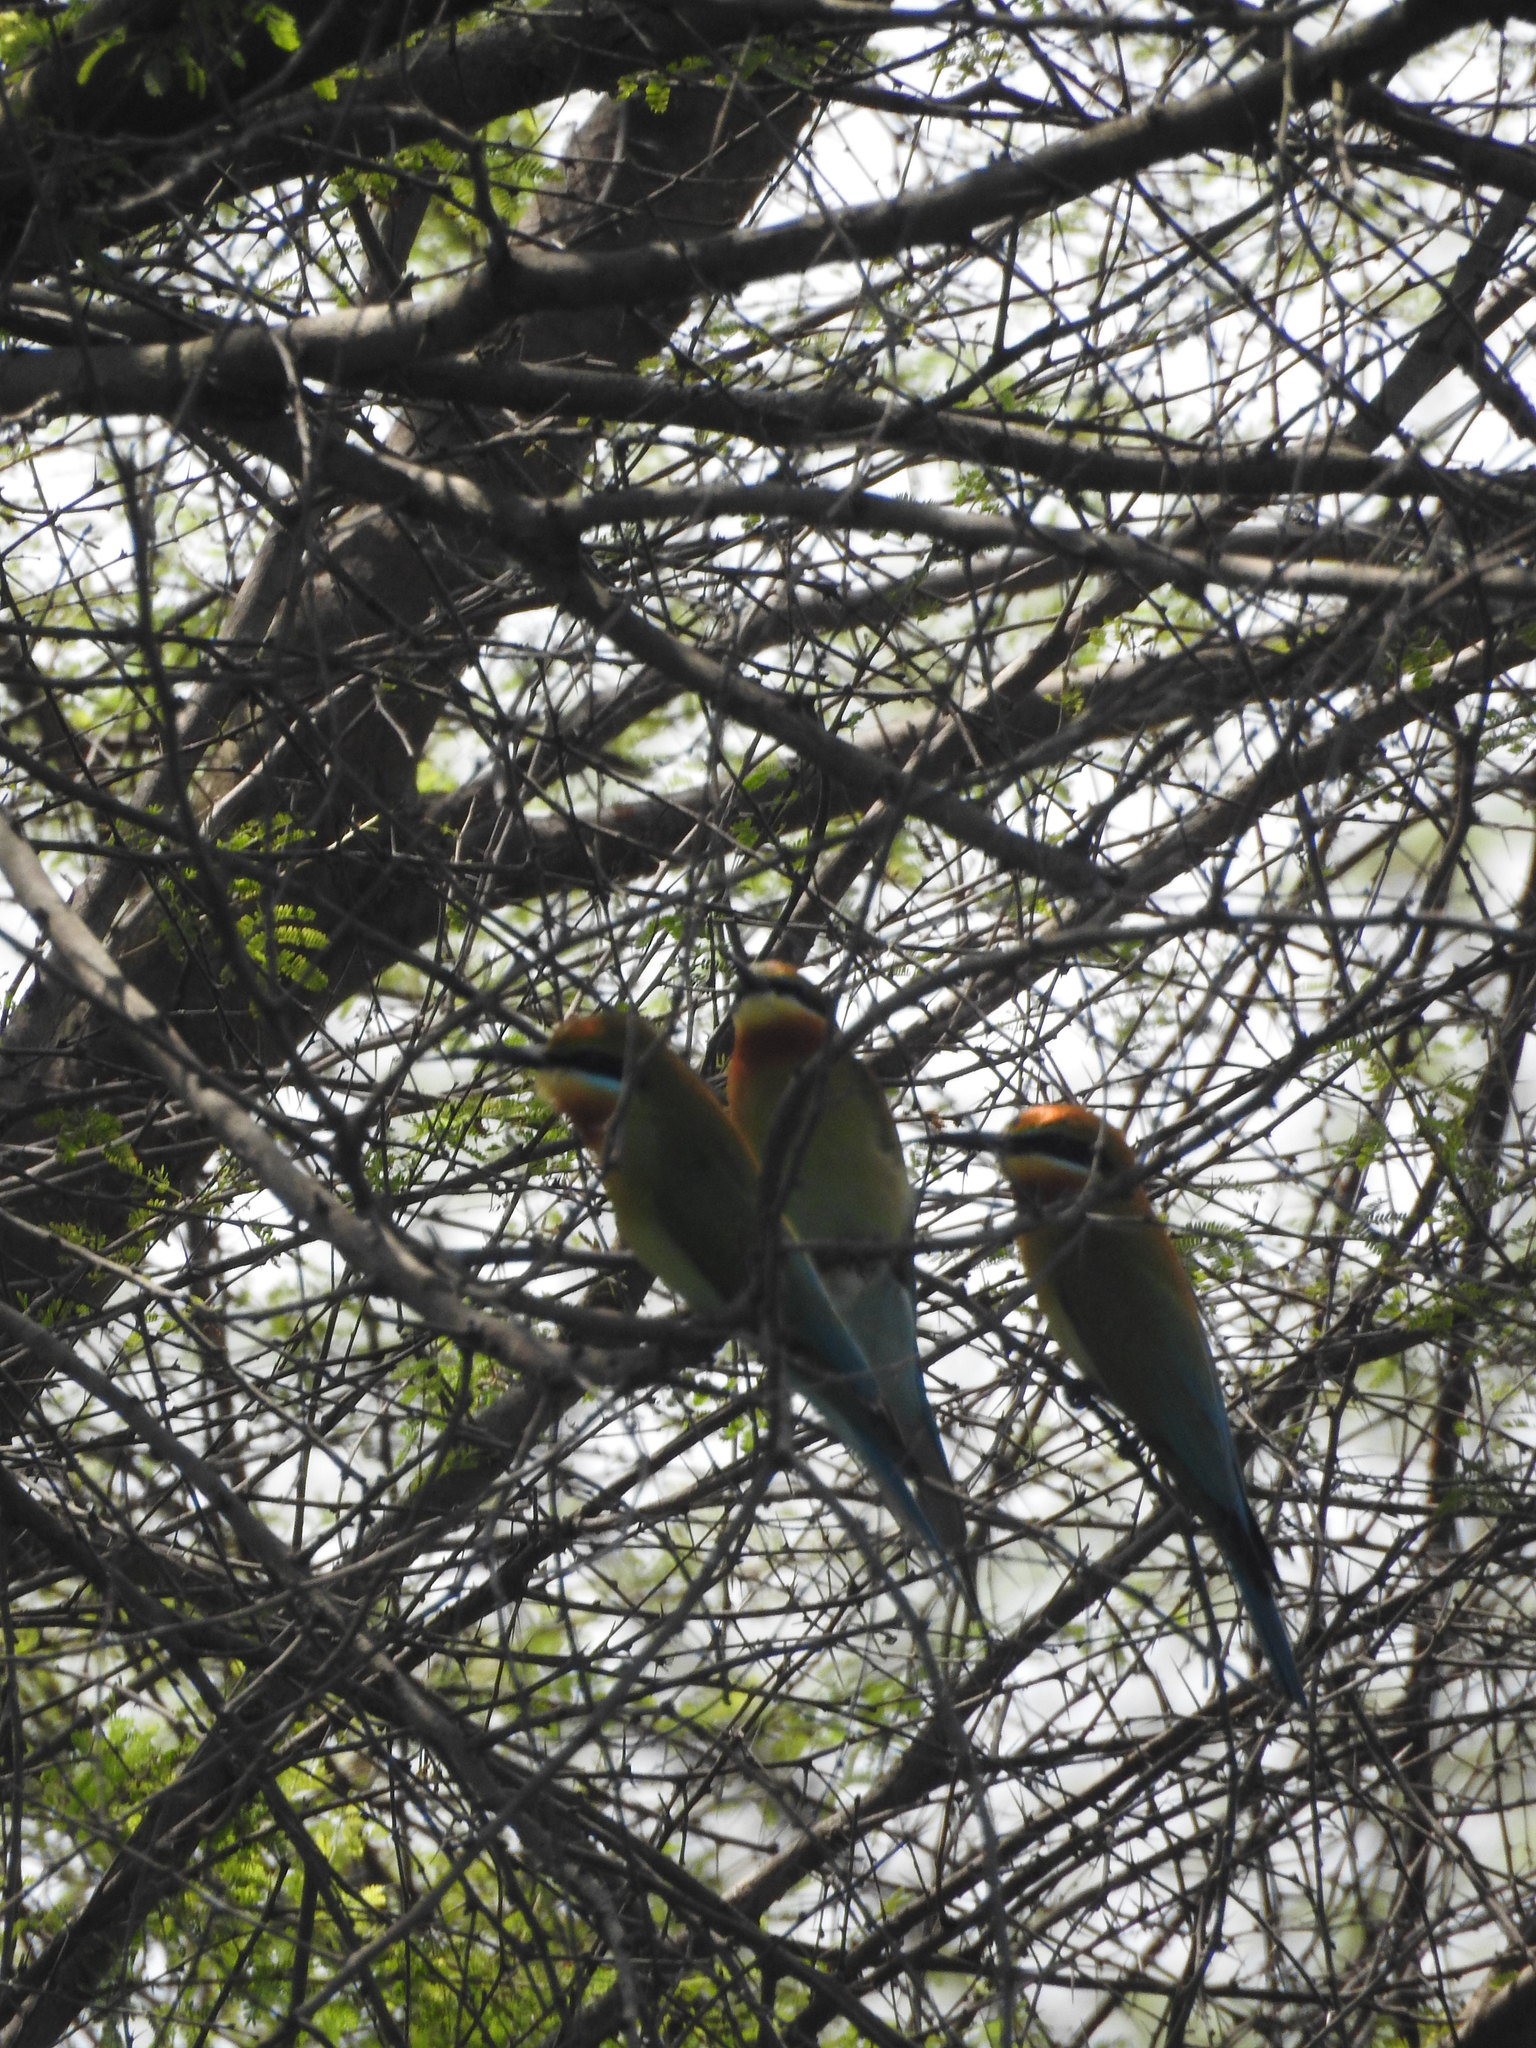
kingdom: Animalia
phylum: Chordata
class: Aves
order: Coraciiformes
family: Meropidae
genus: Merops
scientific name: Merops philippinus
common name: Blue-tailed bee-eater
